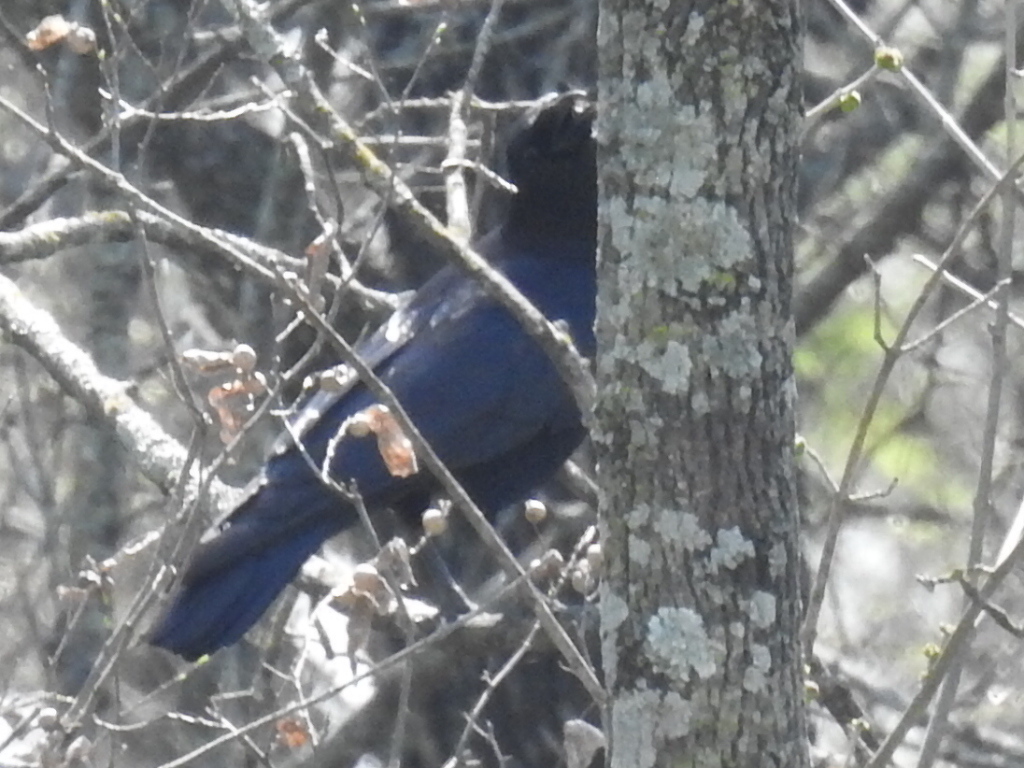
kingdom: Animalia
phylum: Chordata
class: Aves
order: Passeriformes
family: Corvidae
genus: Corvus
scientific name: Corvus brachyrhynchos
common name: American crow
